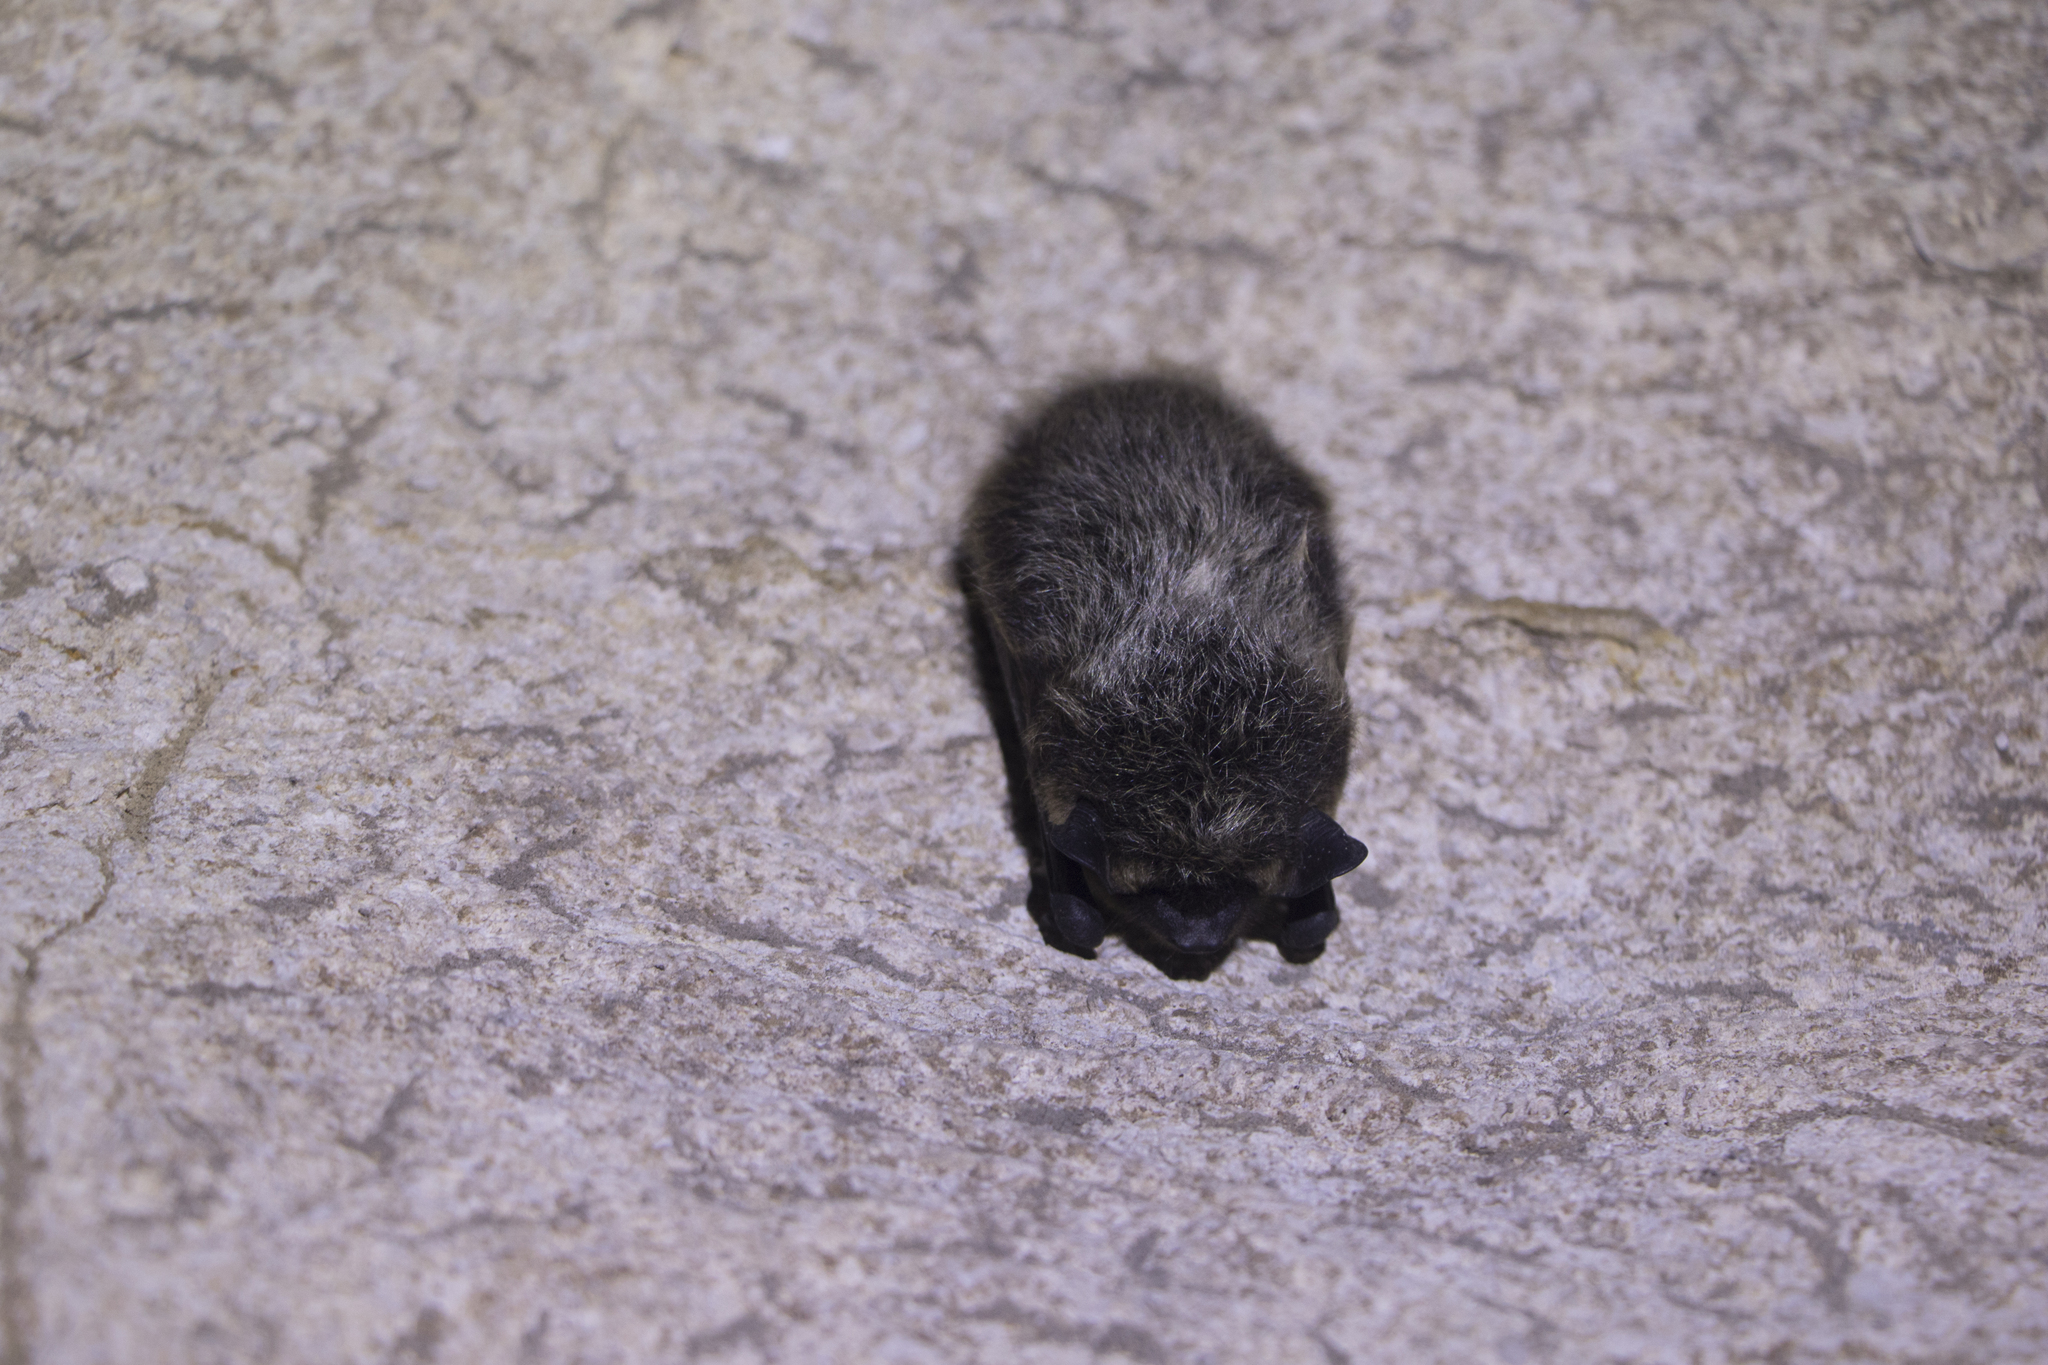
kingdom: Animalia
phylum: Chordata
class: Mammalia
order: Chiroptera
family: Vespertilionidae
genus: Eptesicus
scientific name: Eptesicus nilssonii
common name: Northern bat
